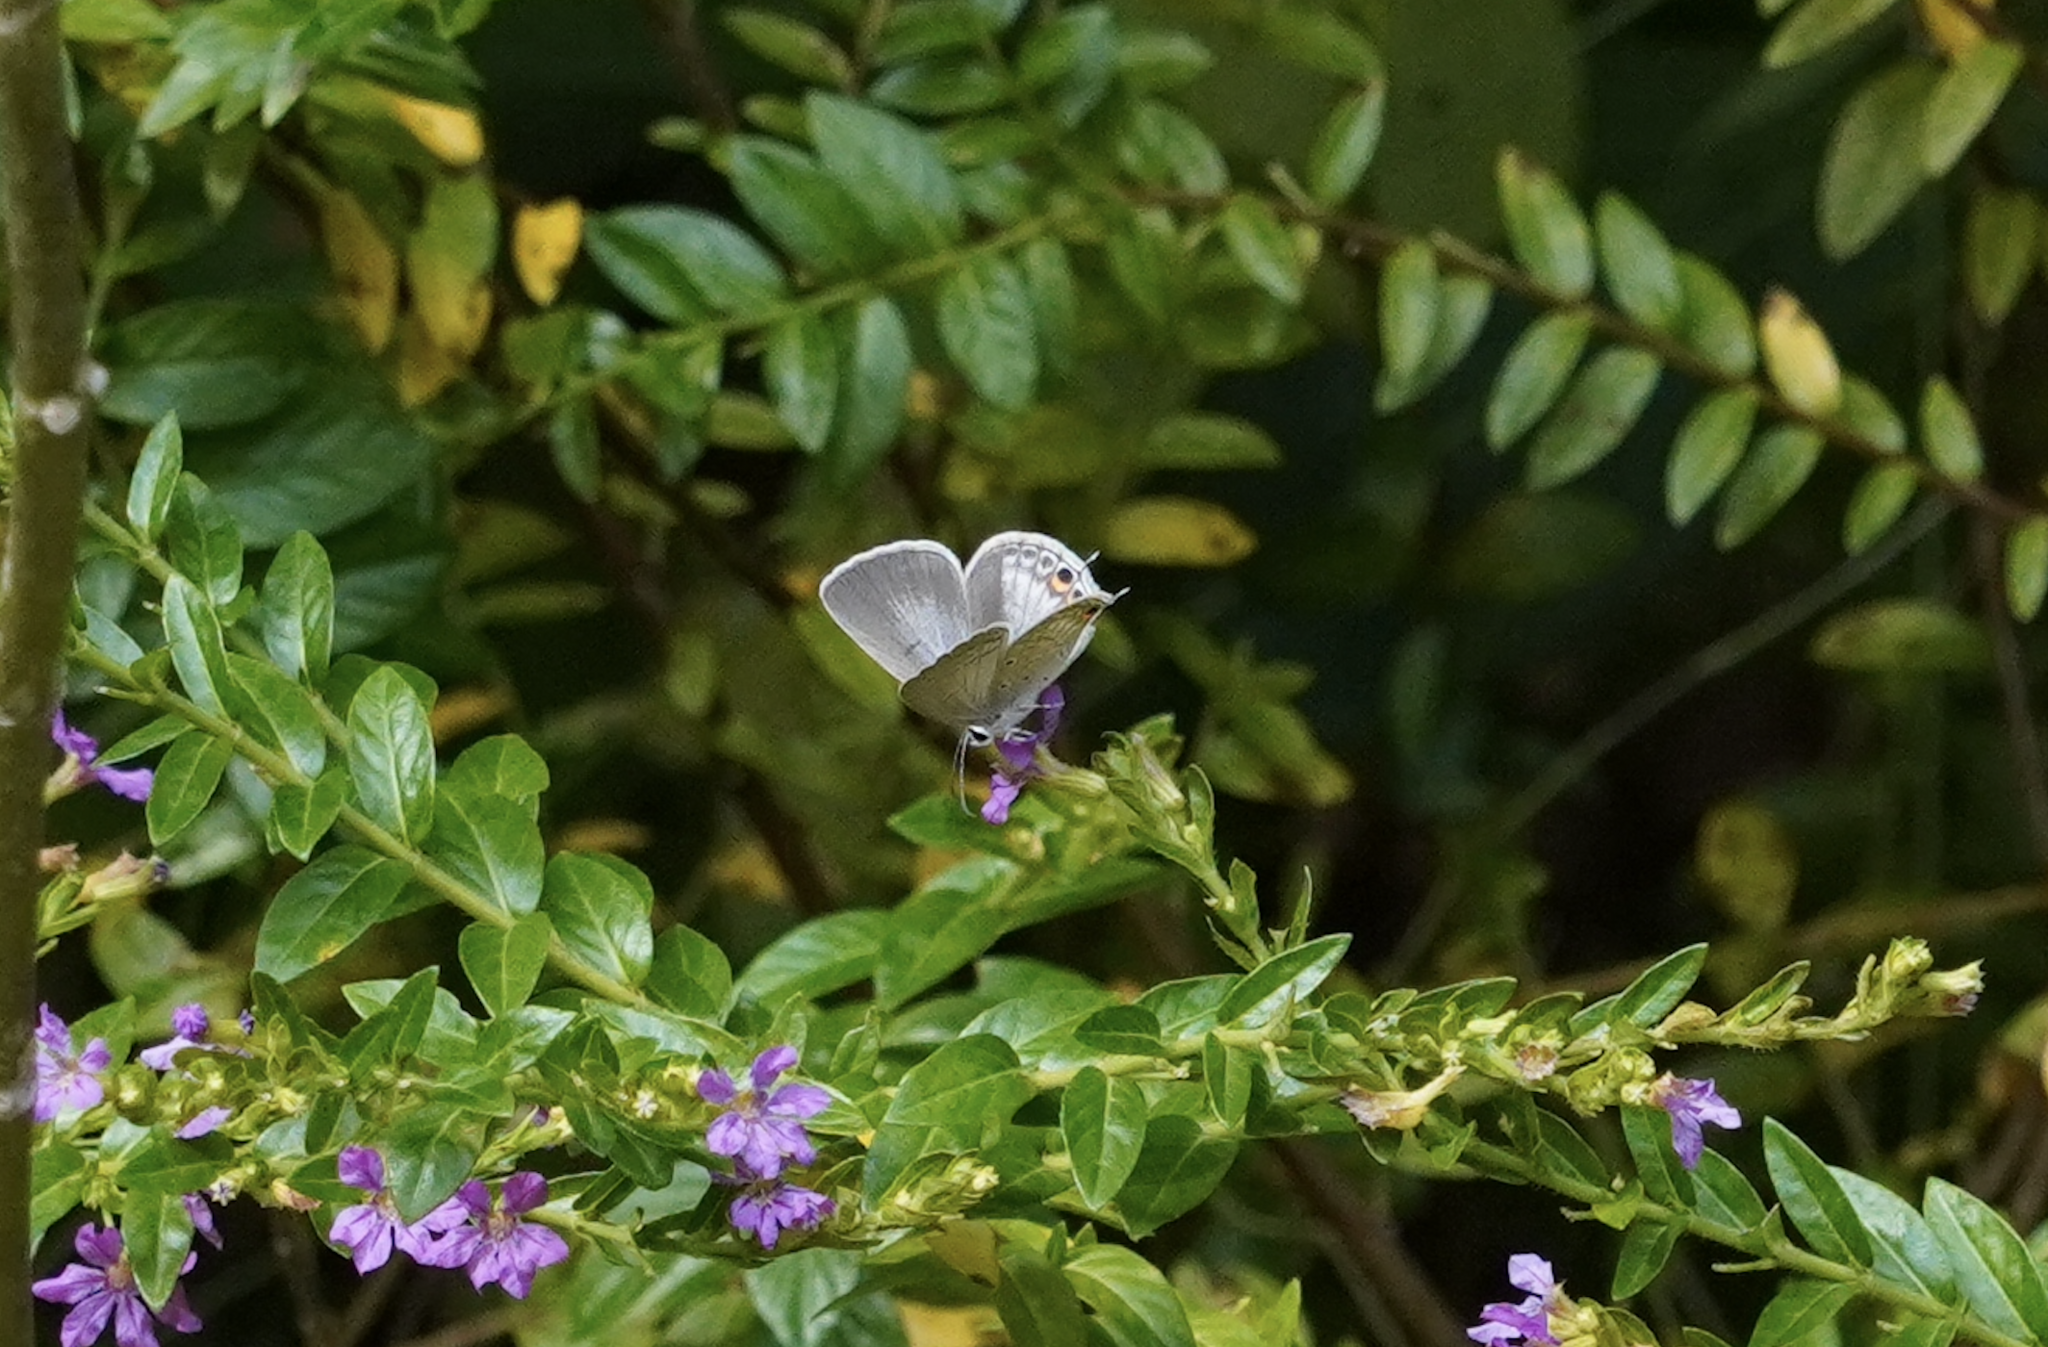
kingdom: Animalia
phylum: Arthropoda
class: Insecta
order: Lepidoptera
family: Lycaenidae
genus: Euchrysops
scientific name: Euchrysops cnejus
